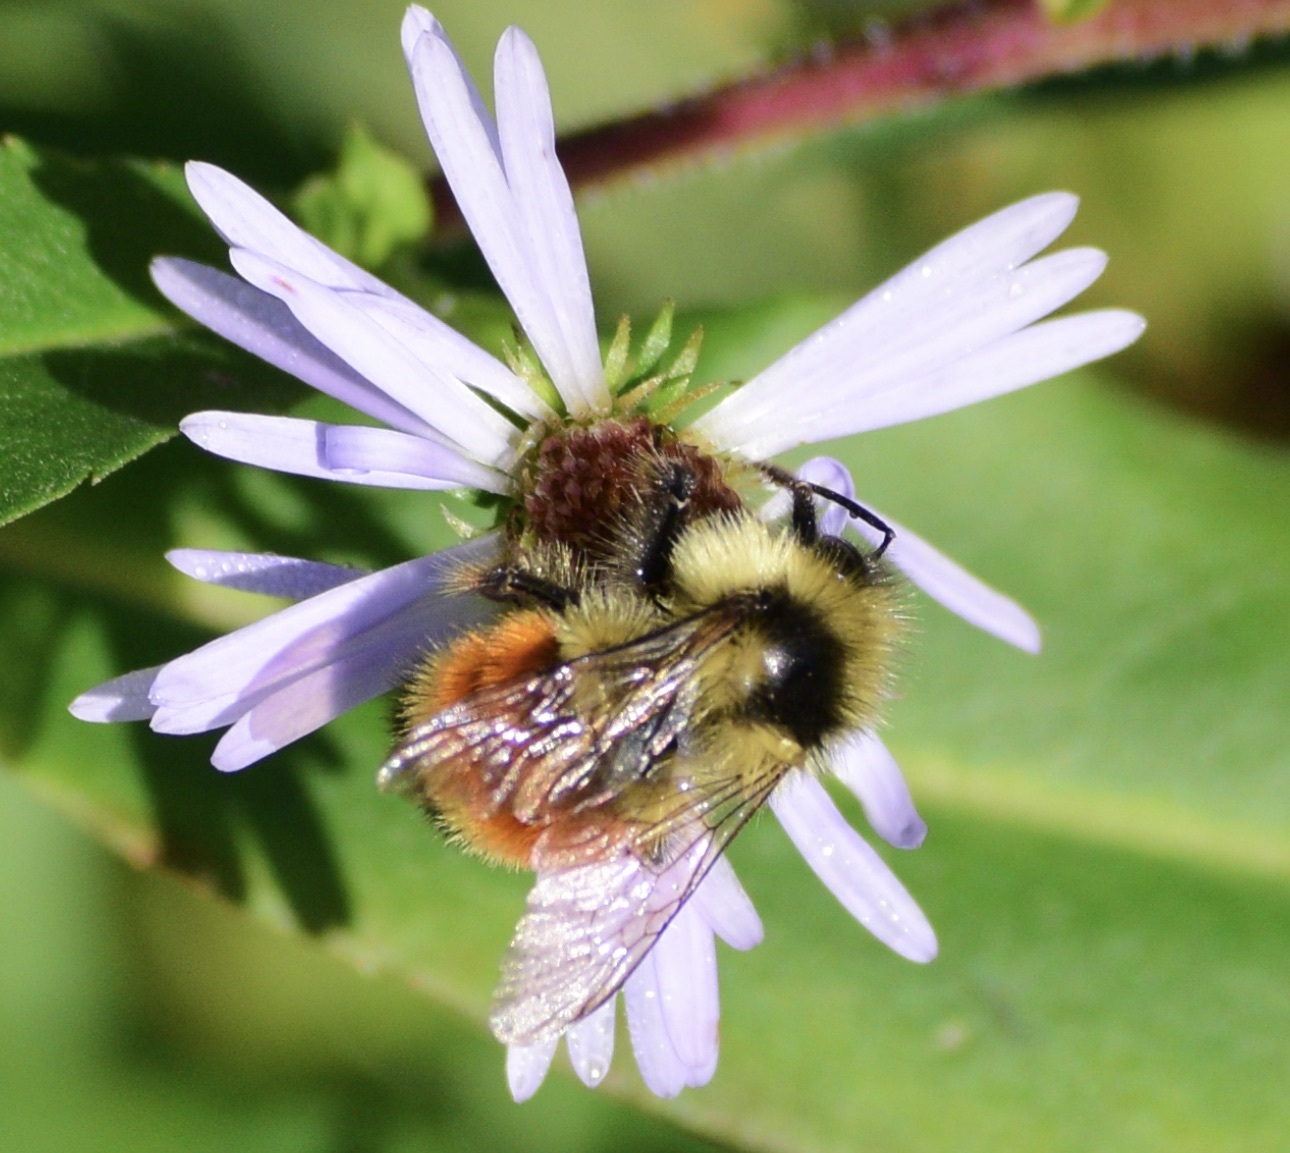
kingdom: Animalia
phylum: Arthropoda
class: Insecta
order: Hymenoptera
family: Apidae
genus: Bombus
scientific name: Bombus ternarius
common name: Tri-colored bumble bee
